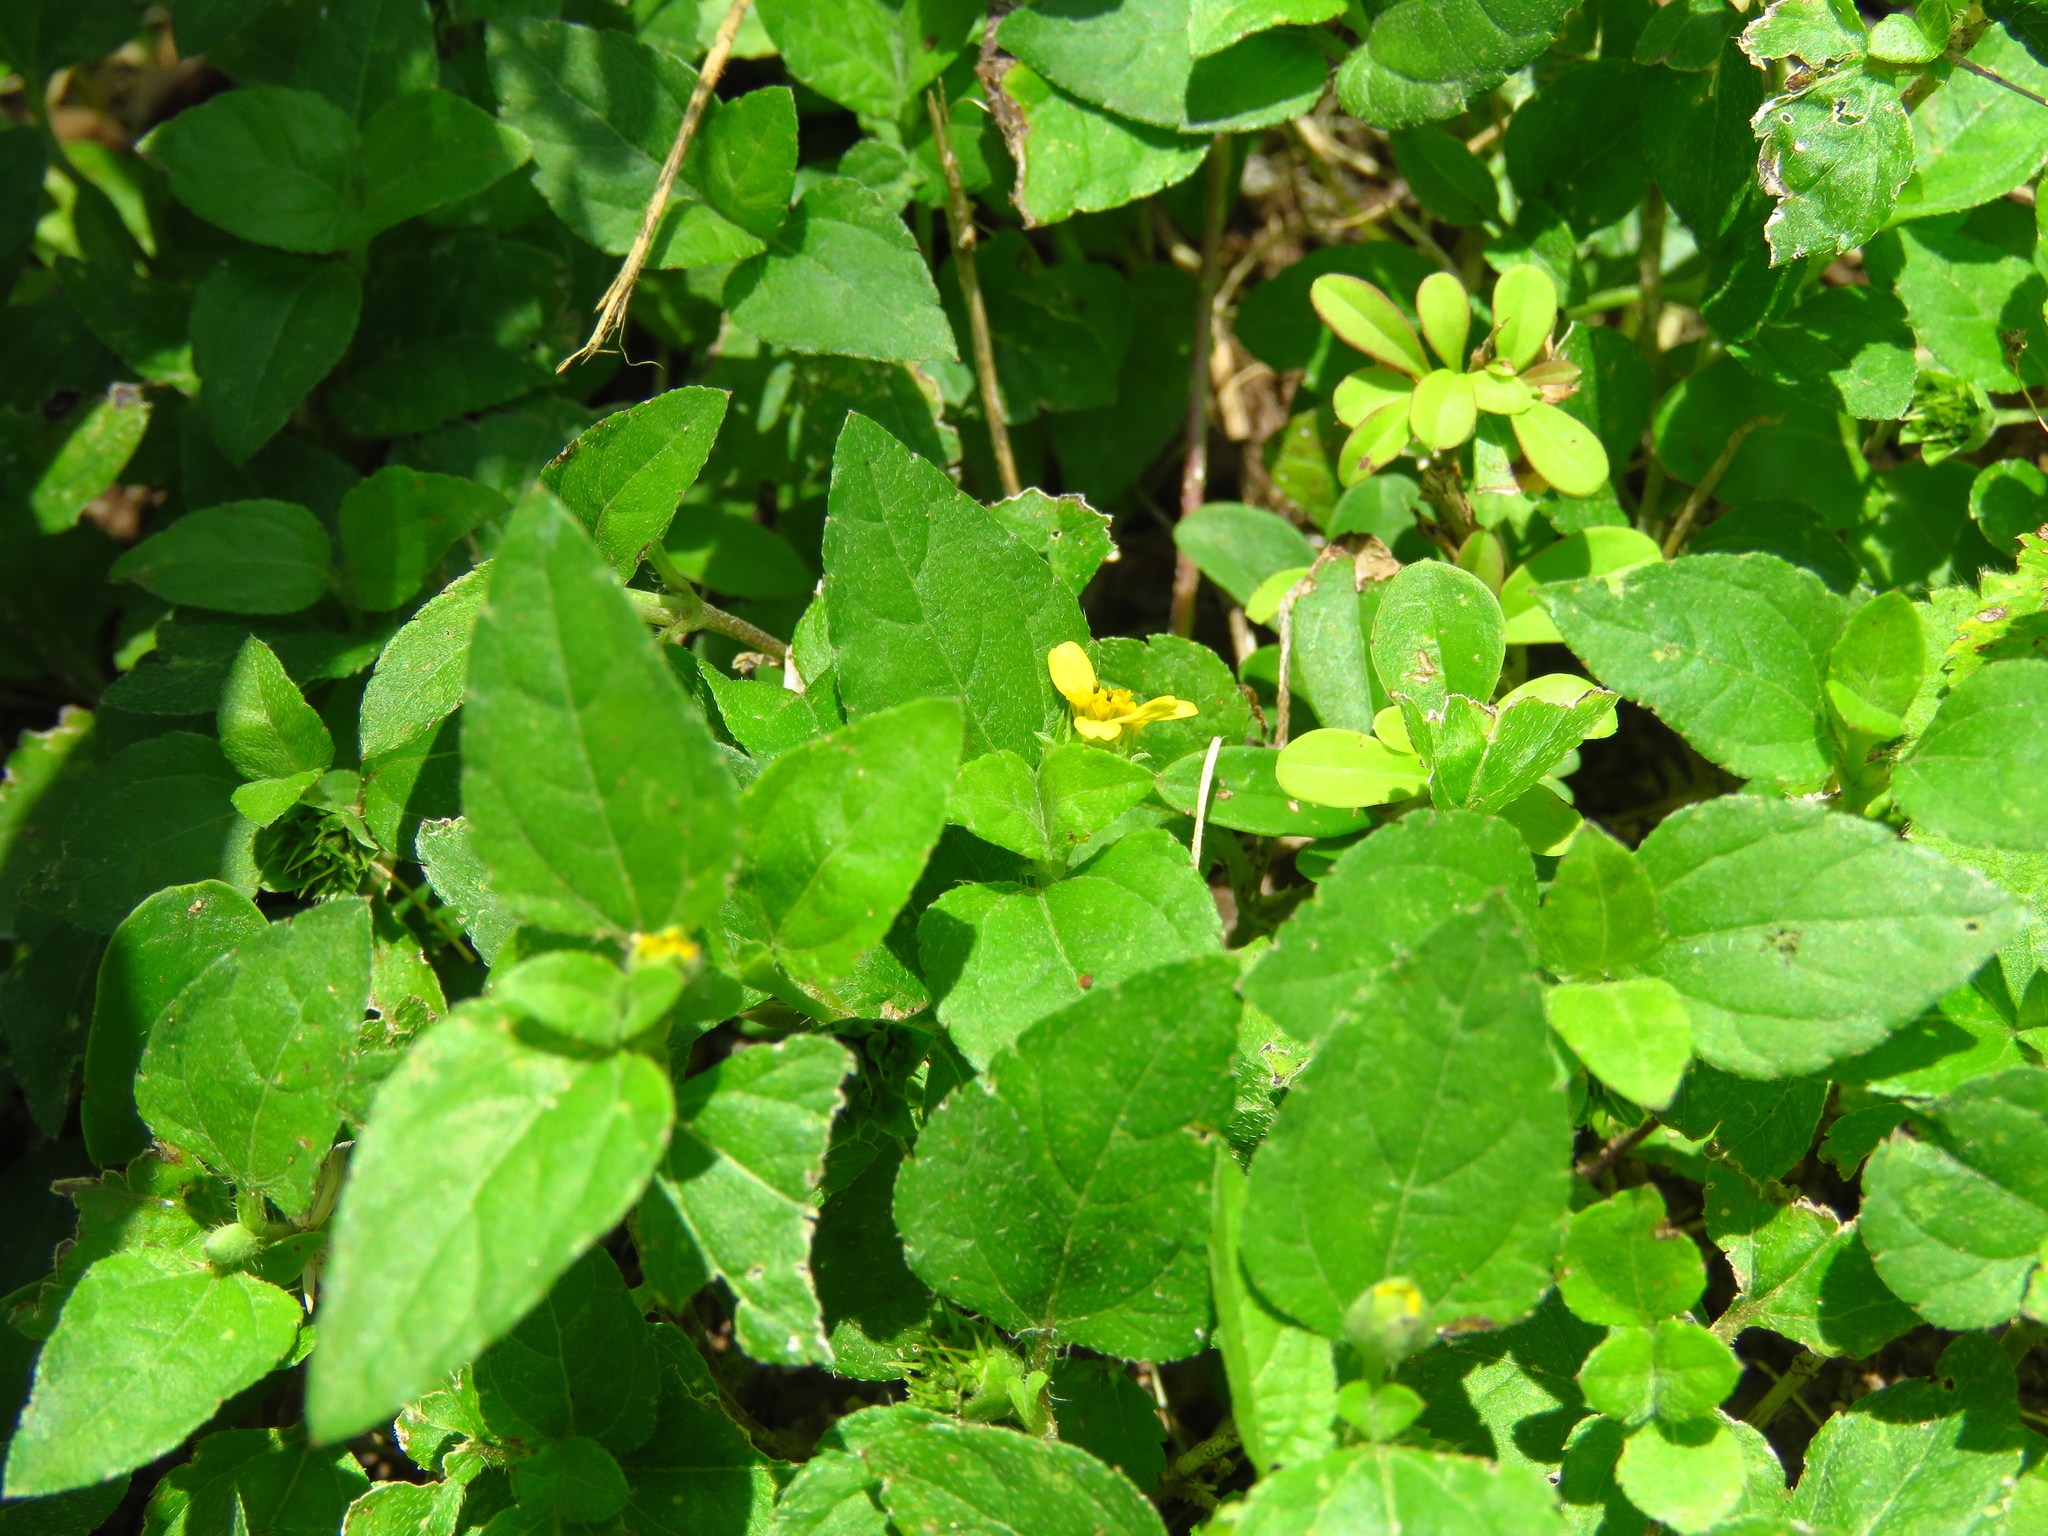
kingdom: Plantae
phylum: Tracheophyta
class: Magnoliopsida
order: Asterales
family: Asteraceae
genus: Calyptocarpus
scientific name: Calyptocarpus vialis
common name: Straggler daisy
